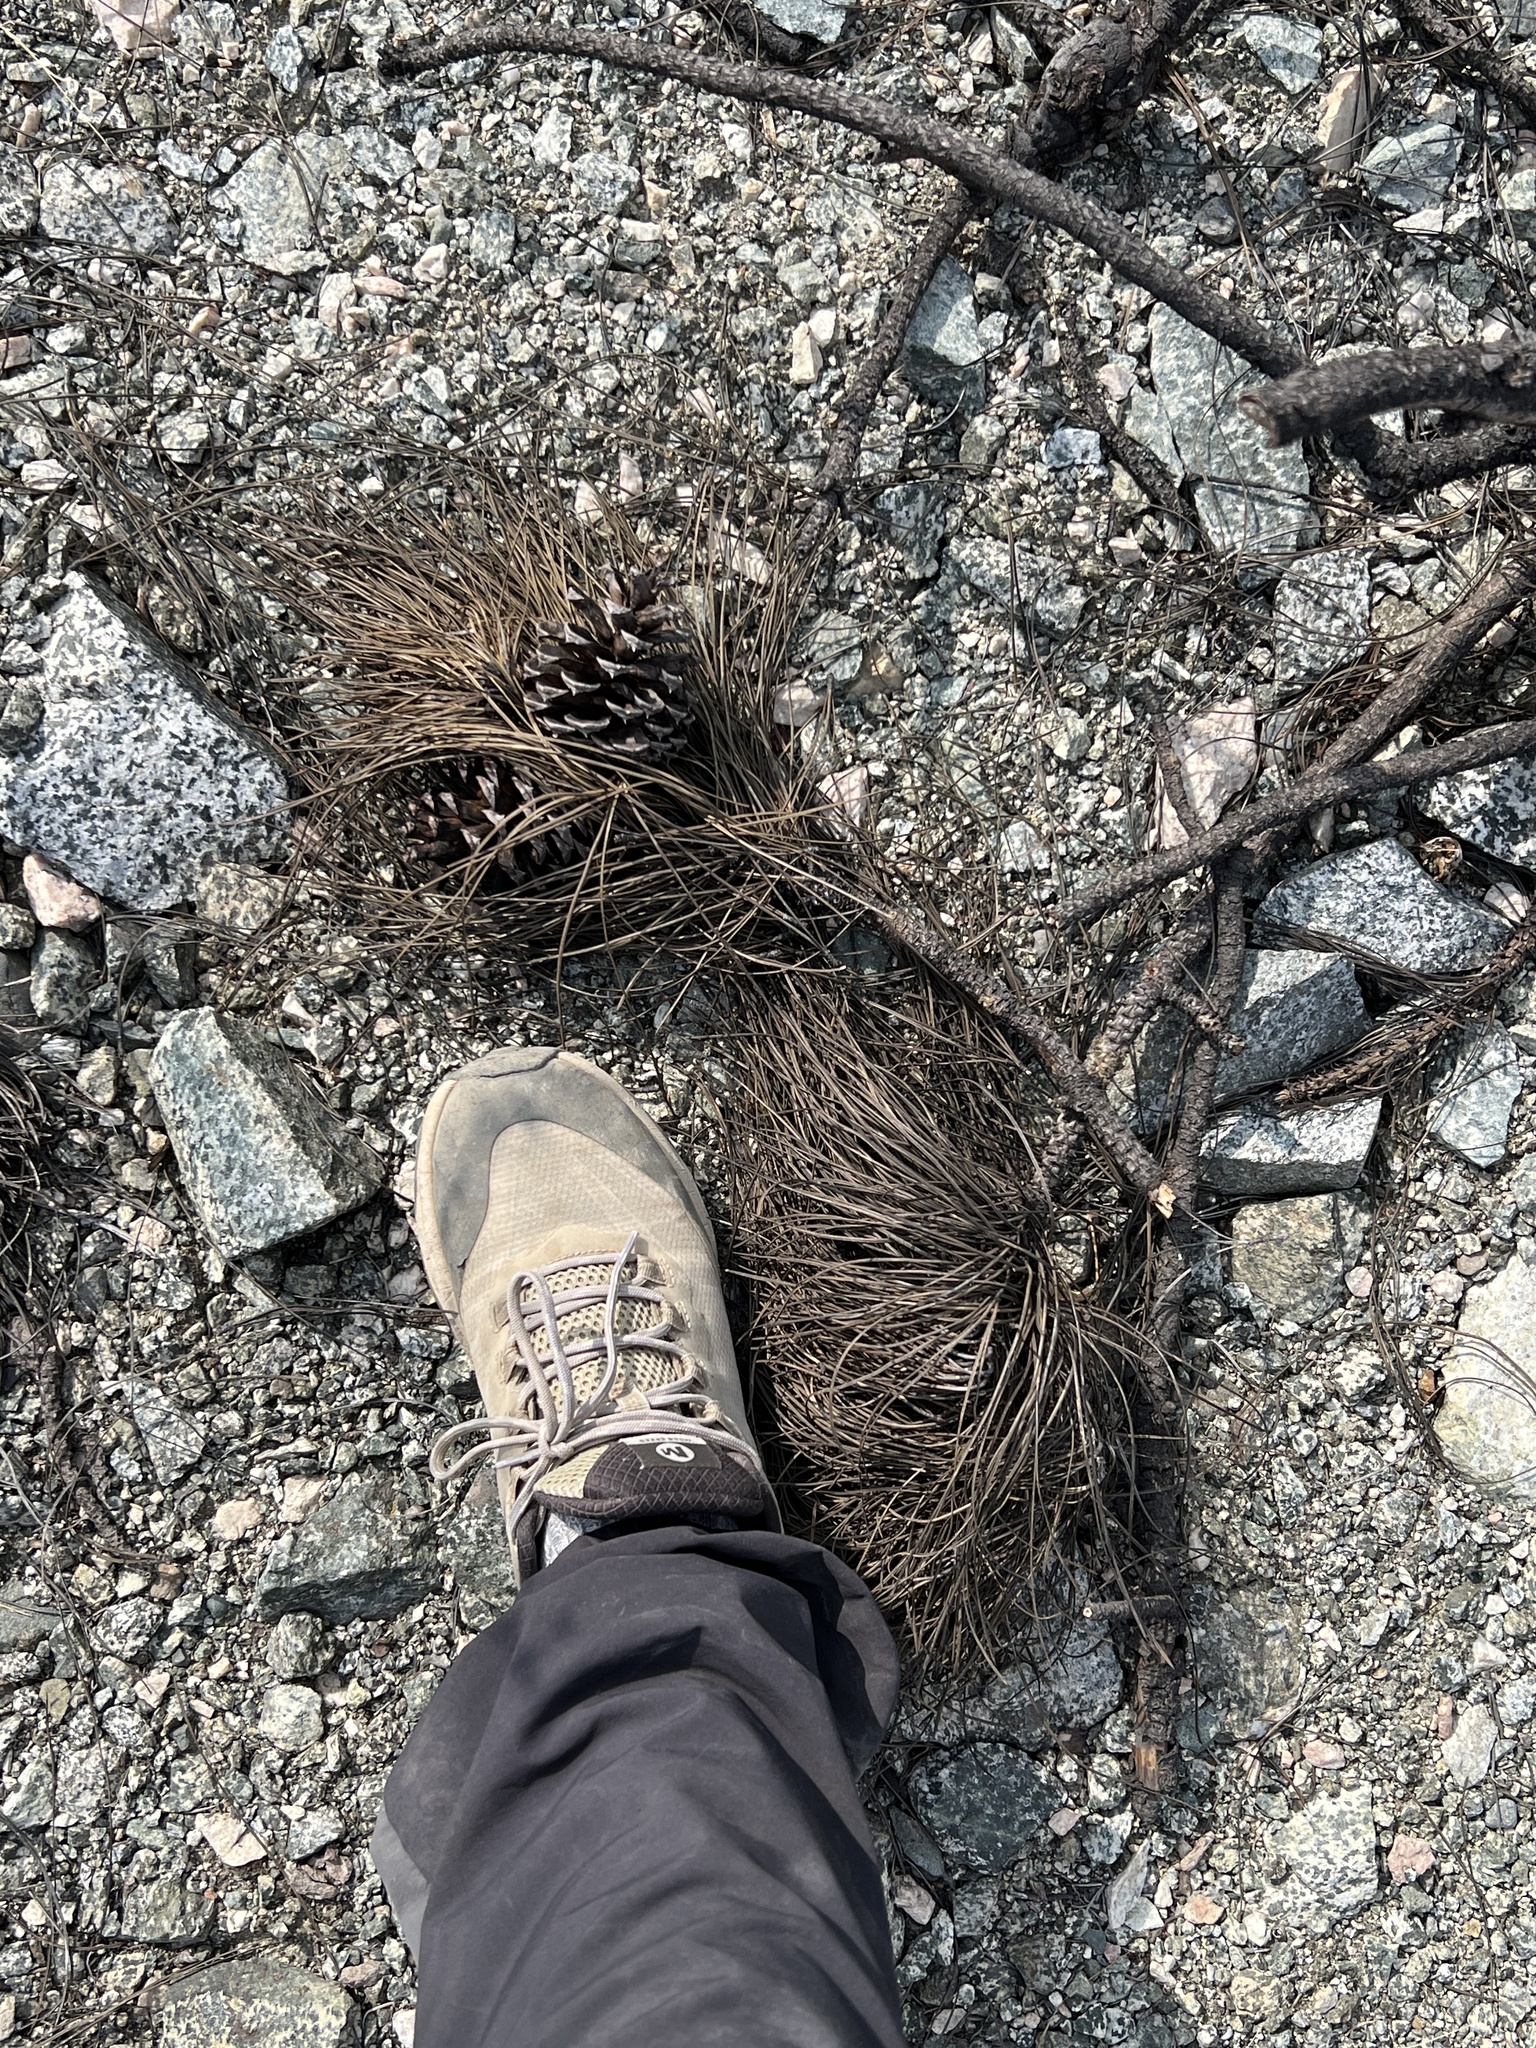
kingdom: Plantae
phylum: Tracheophyta
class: Pinopsida
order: Pinales
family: Pinaceae
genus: Pinus
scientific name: Pinus ponderosa
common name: Western yellow-pine
